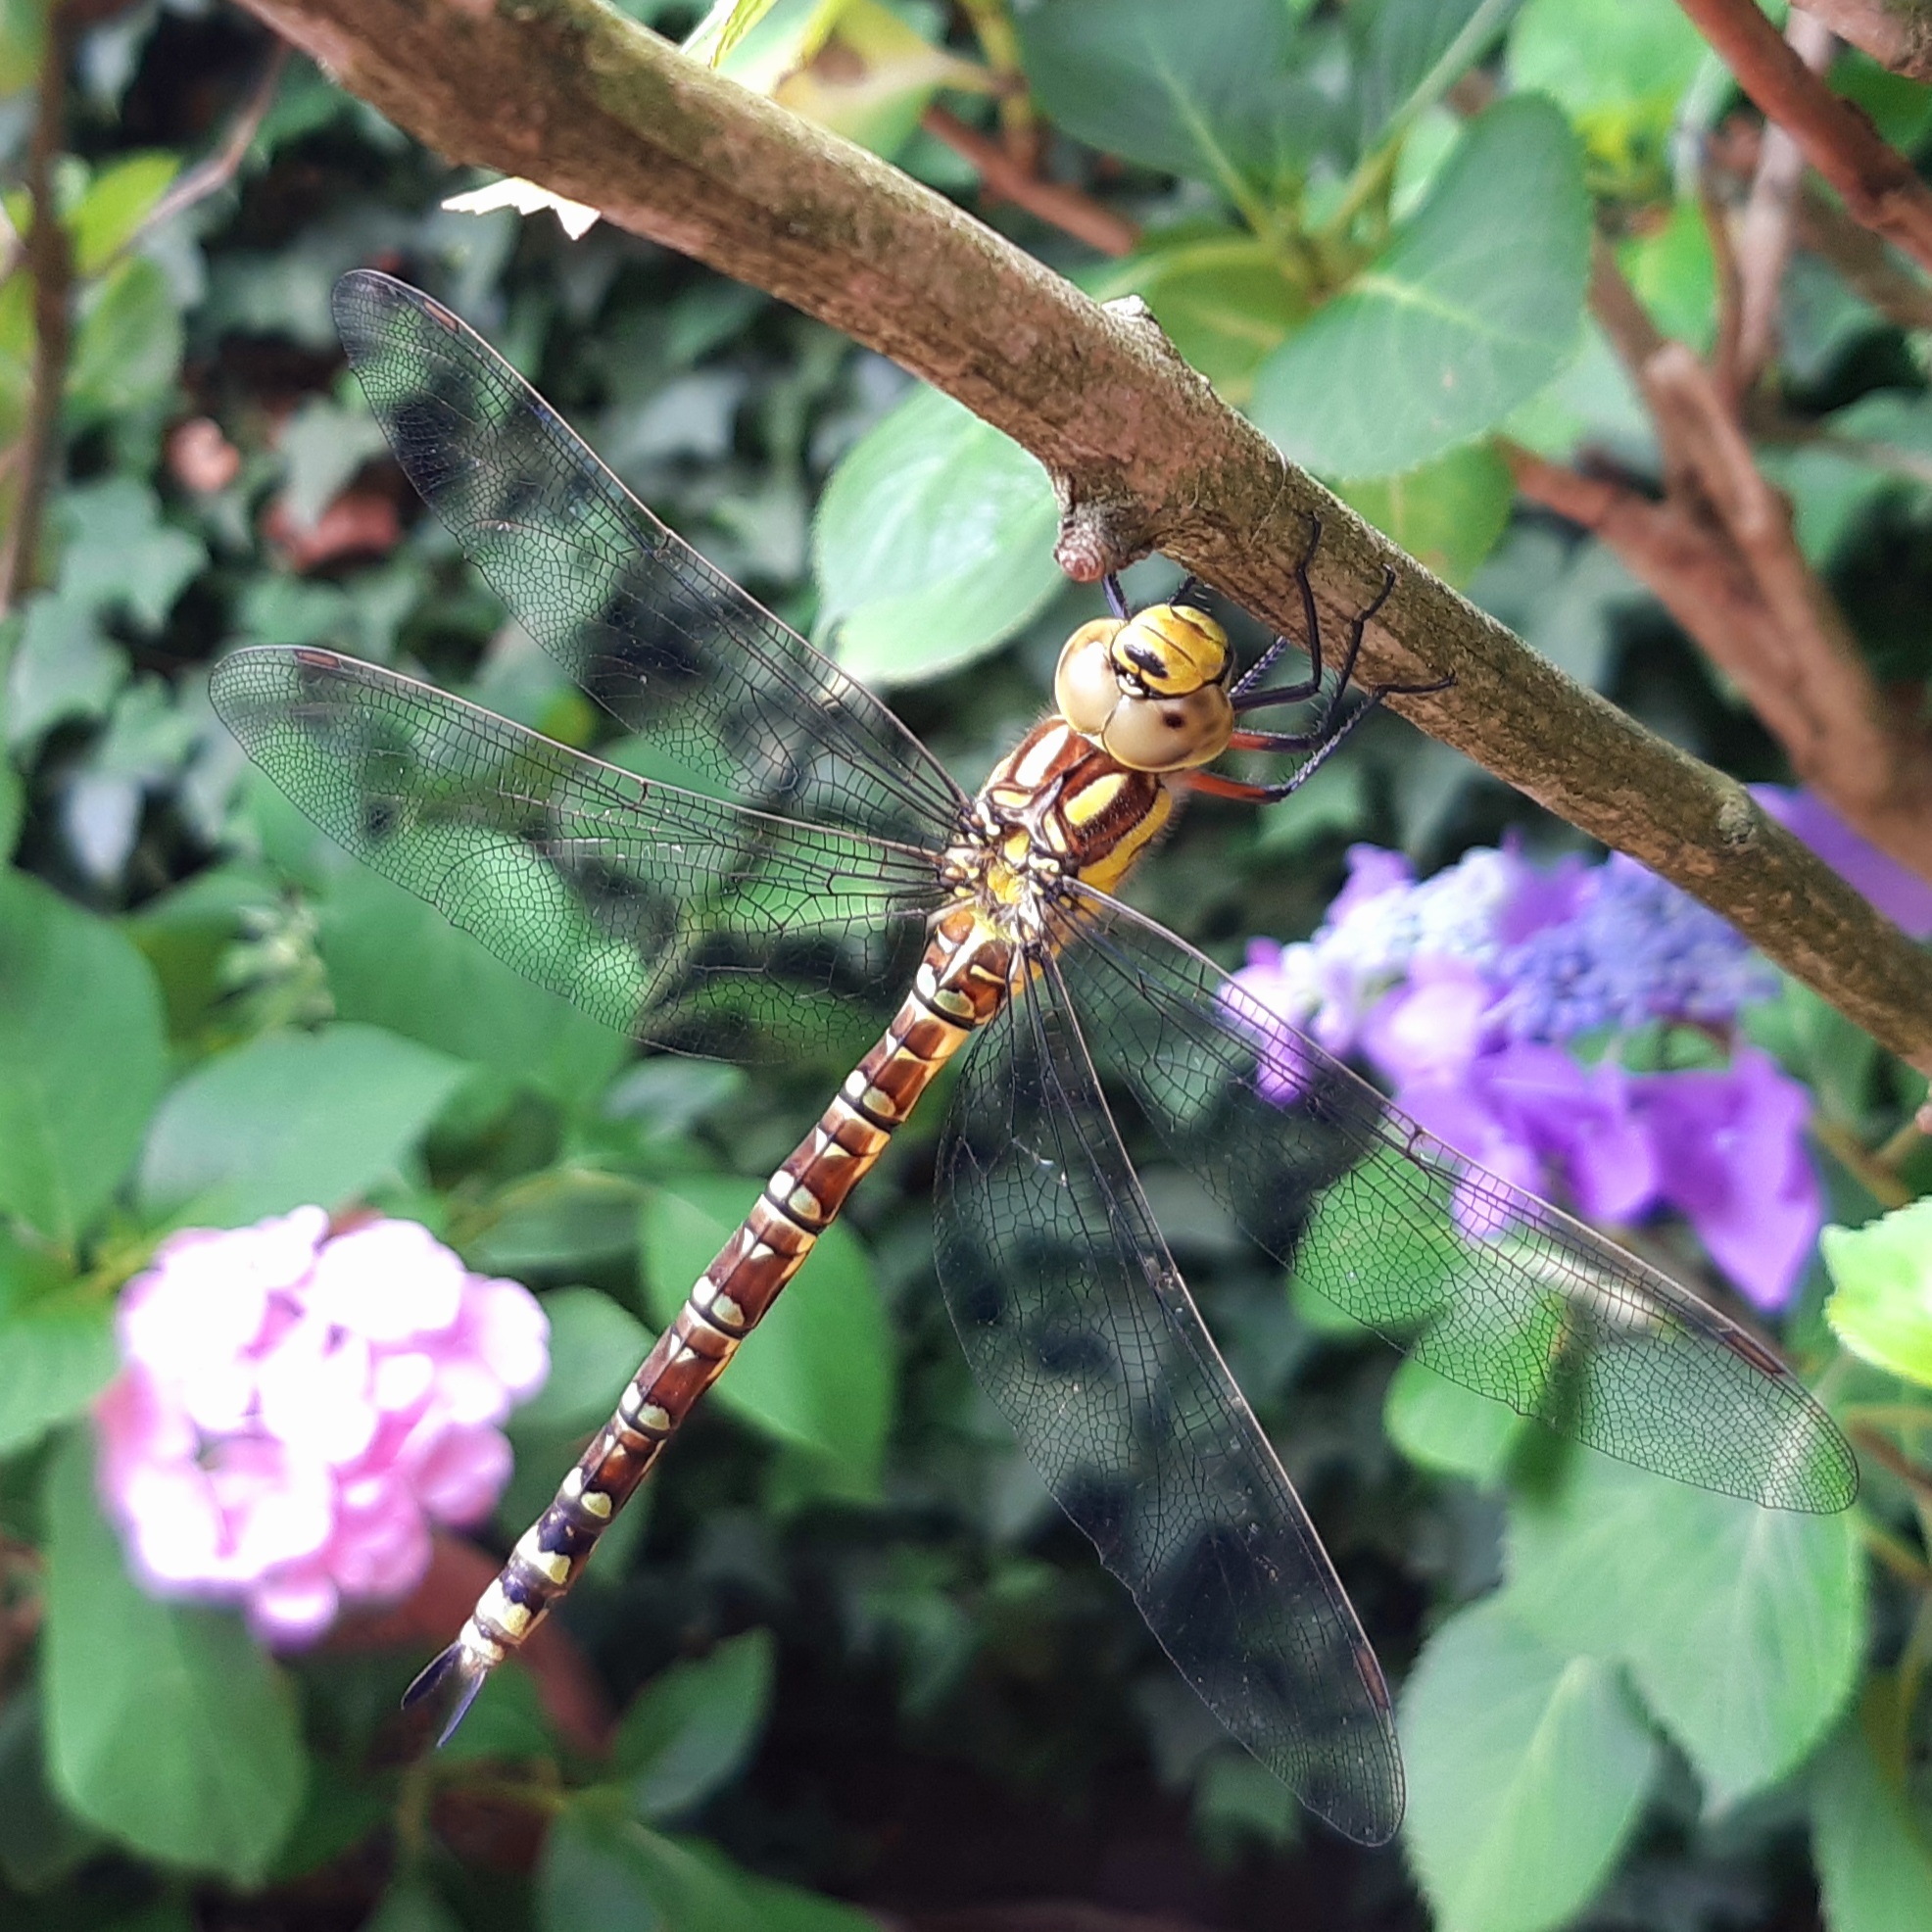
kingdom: Animalia
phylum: Arthropoda
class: Insecta
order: Odonata
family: Aeshnidae
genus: Aeshna
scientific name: Aeshna cyanea
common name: Southern hawker
